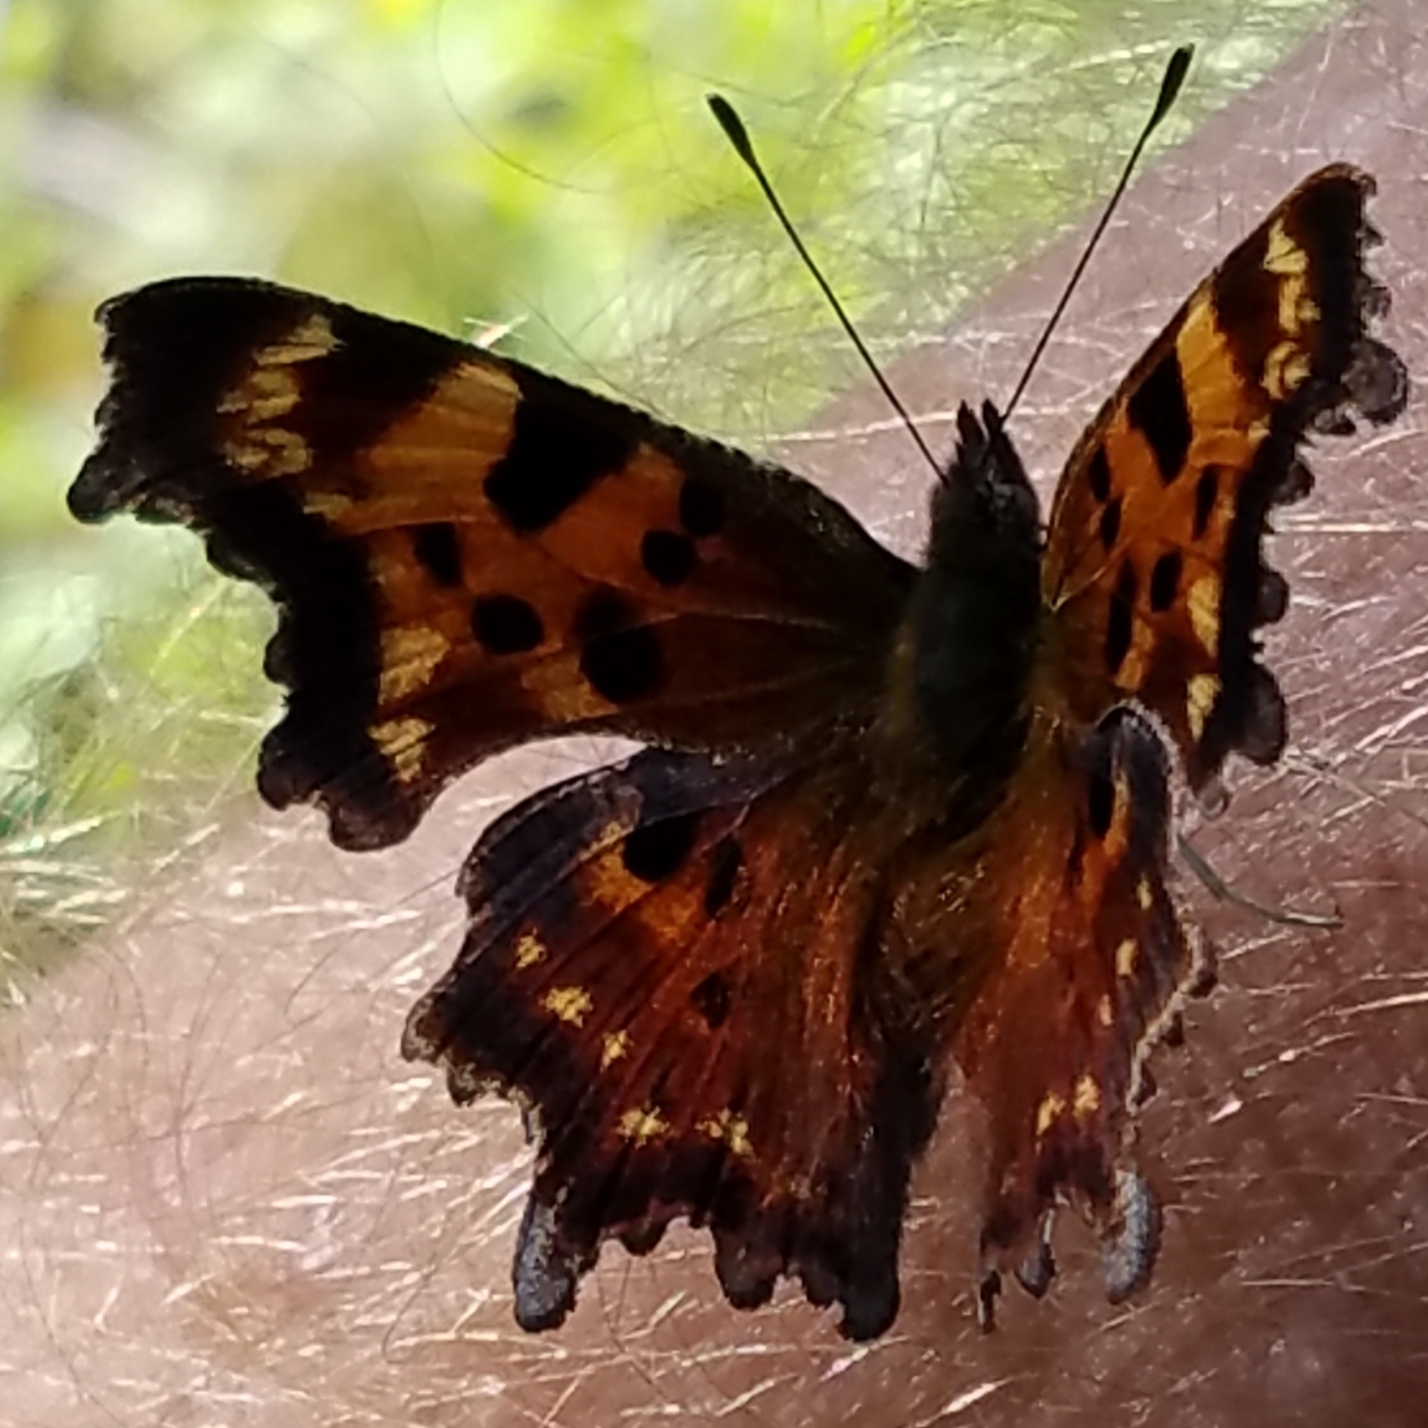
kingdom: Animalia
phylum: Arthropoda
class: Insecta
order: Lepidoptera
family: Nymphalidae
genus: Polygonia
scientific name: Polygonia faunus
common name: Green comma
